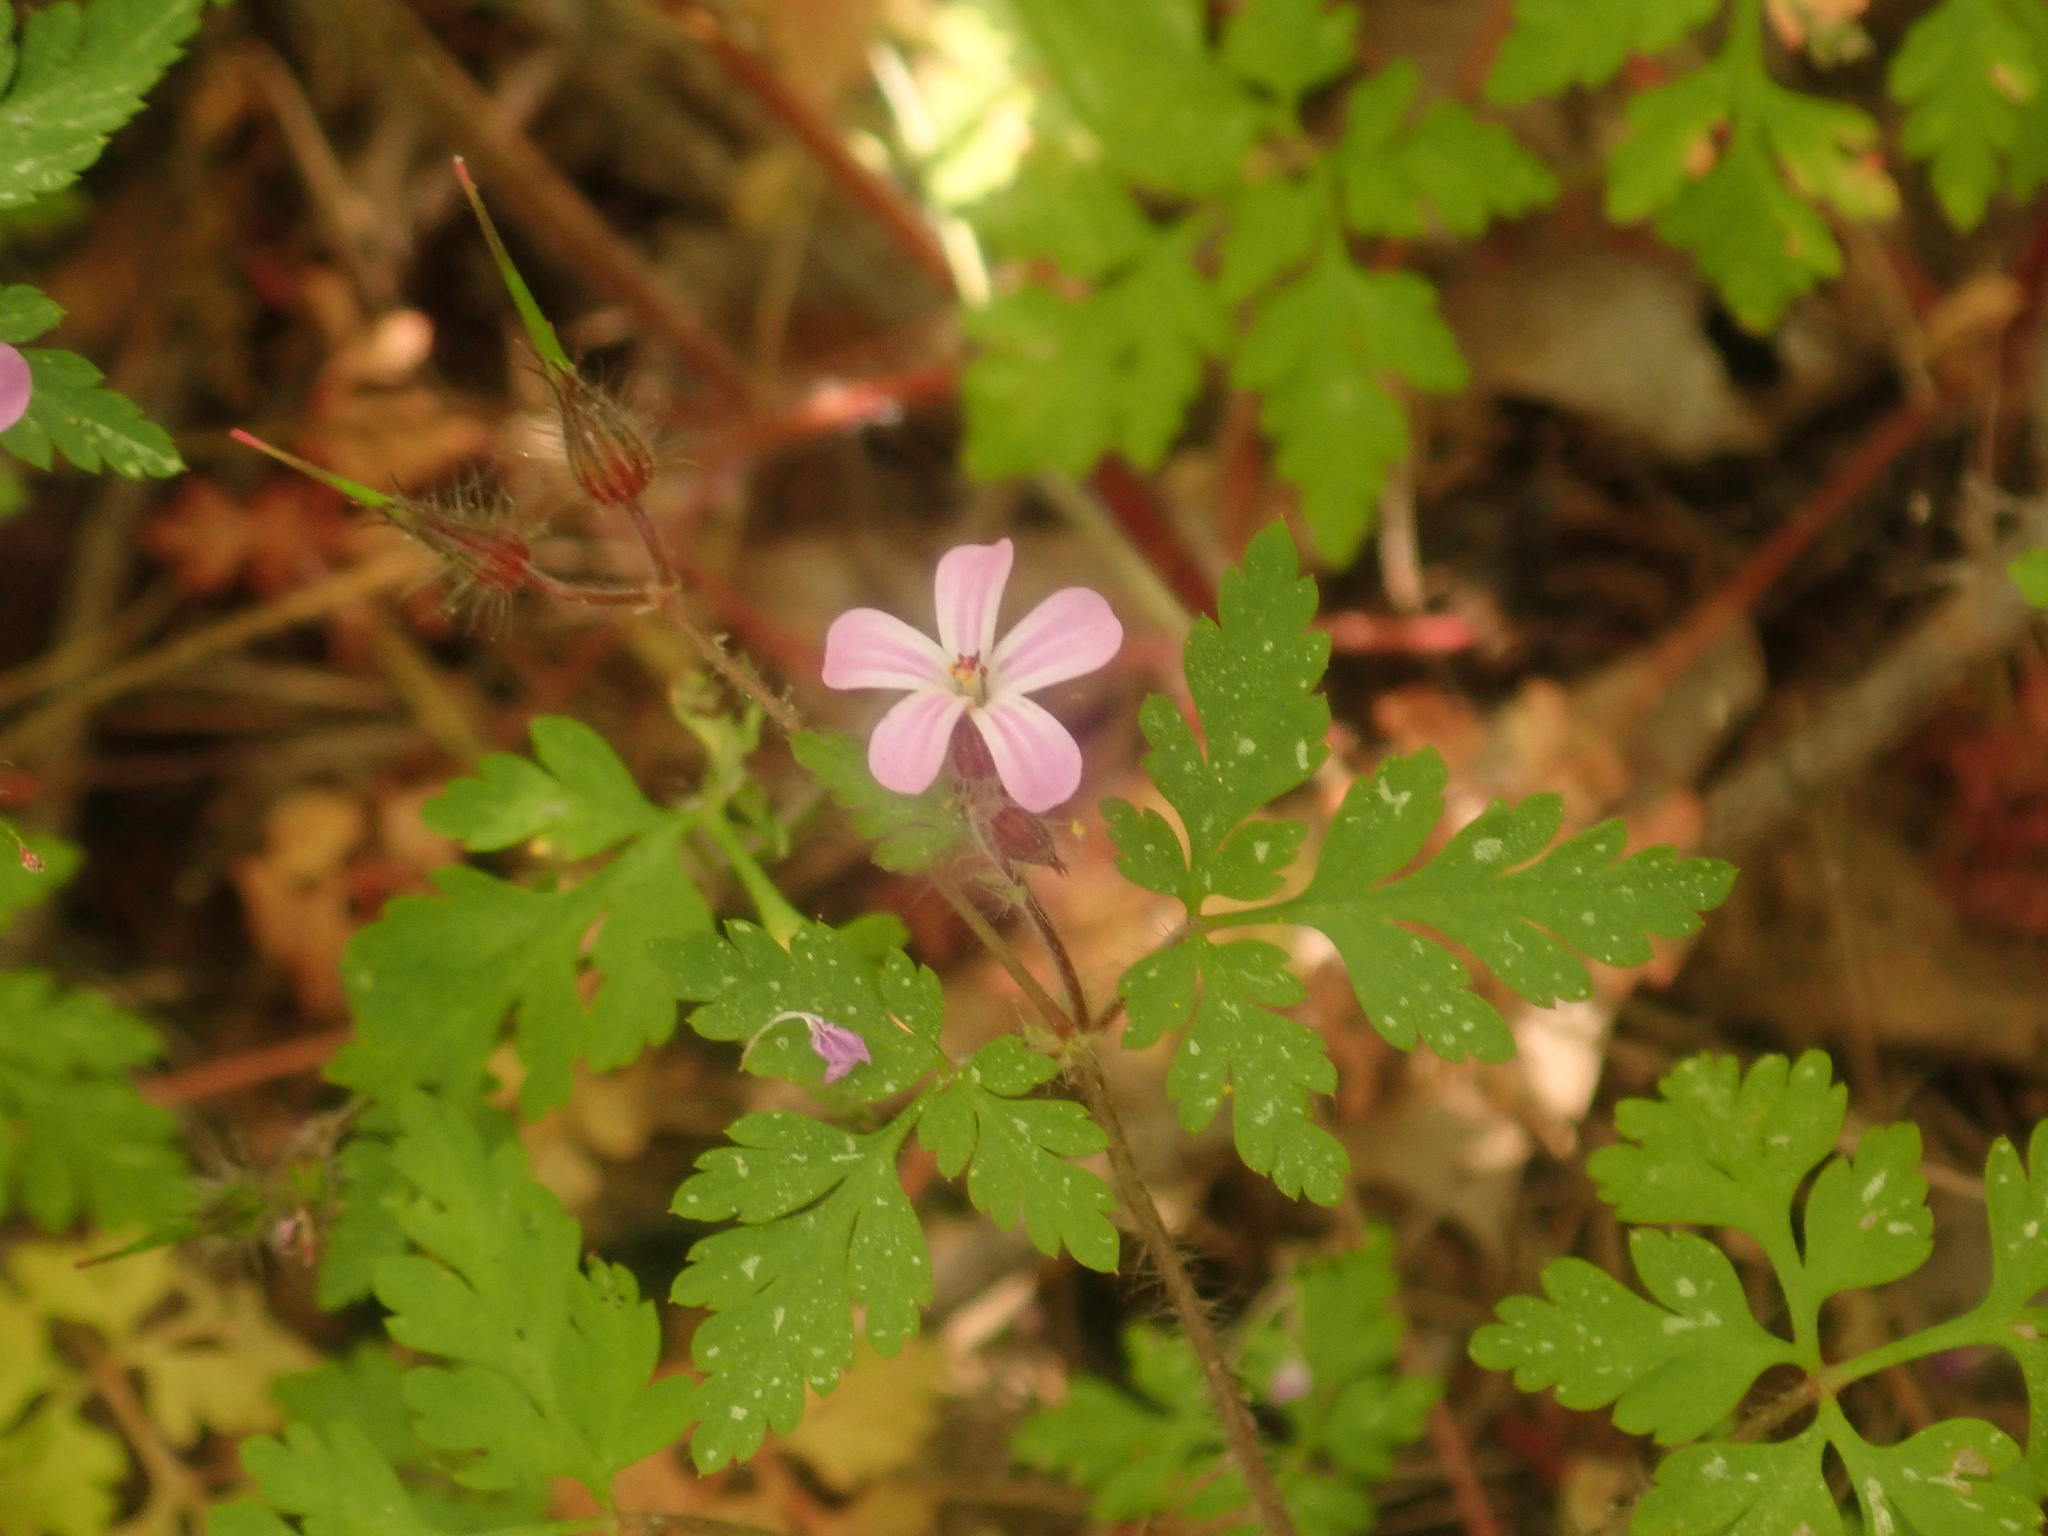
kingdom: Plantae
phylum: Tracheophyta
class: Magnoliopsida
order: Geraniales
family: Geraniaceae
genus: Geranium
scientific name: Geranium robertianum
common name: Herb-robert
